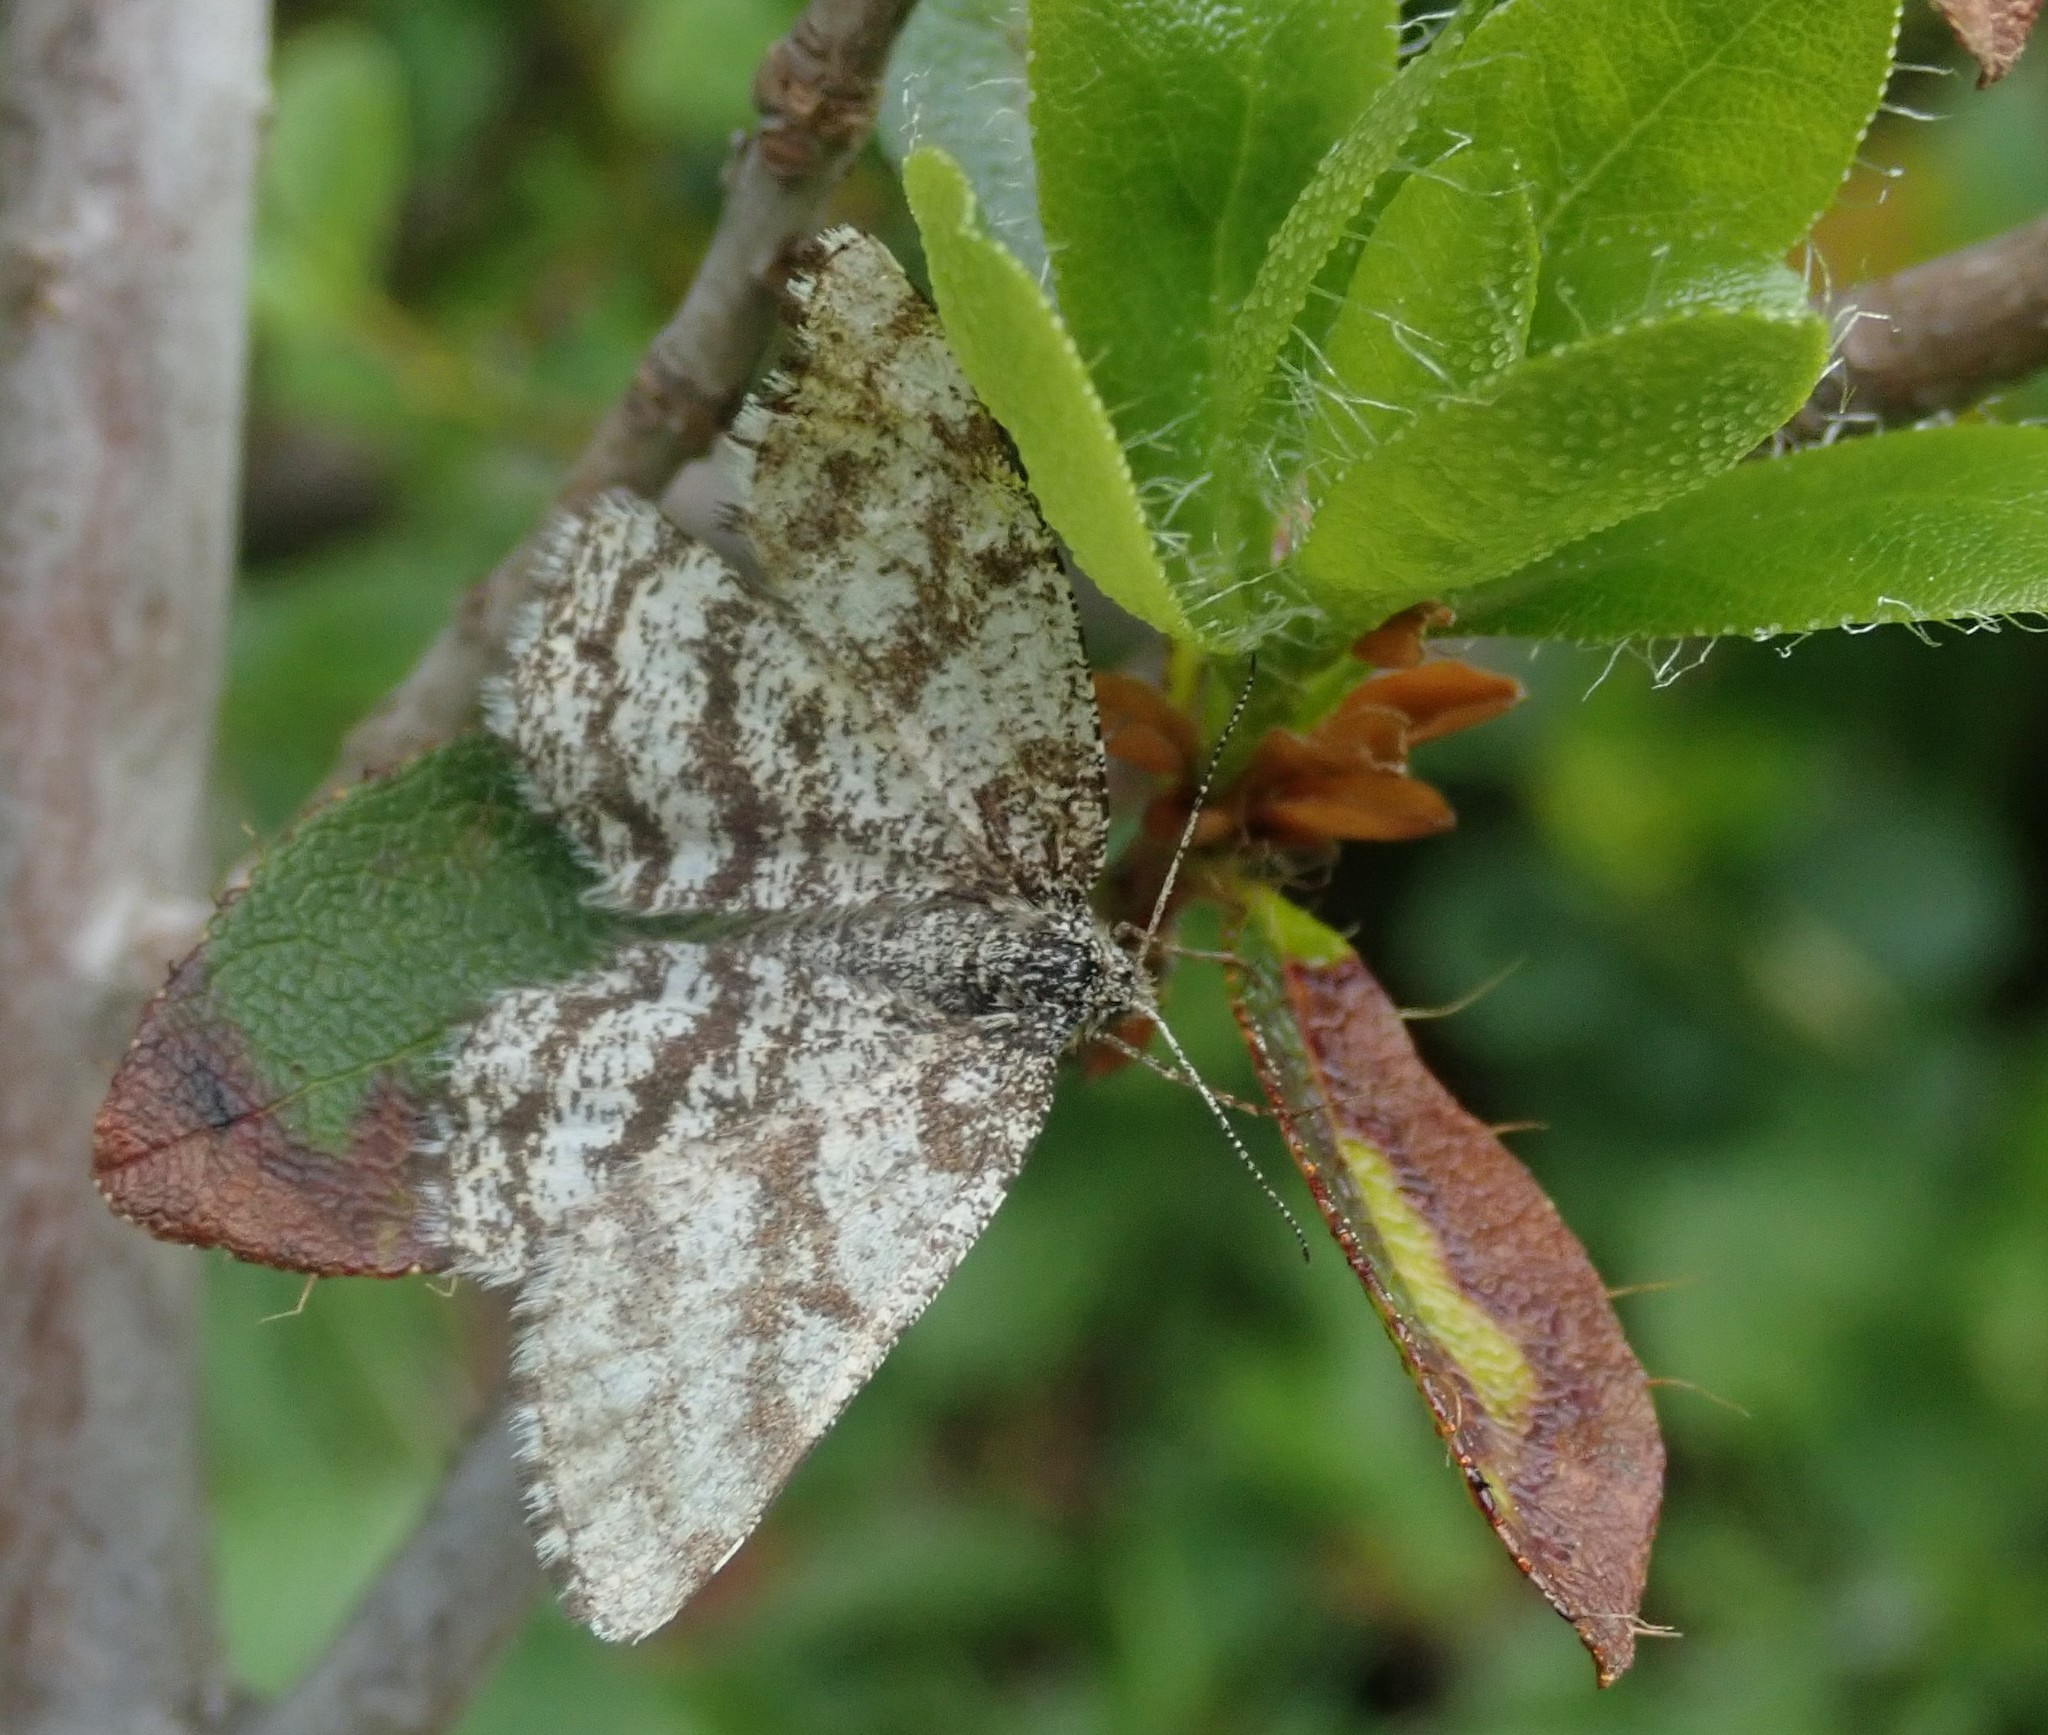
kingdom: Animalia
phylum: Arthropoda
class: Insecta
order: Lepidoptera
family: Geometridae
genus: Ematurga
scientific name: Ematurga atomaria
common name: Common heath
